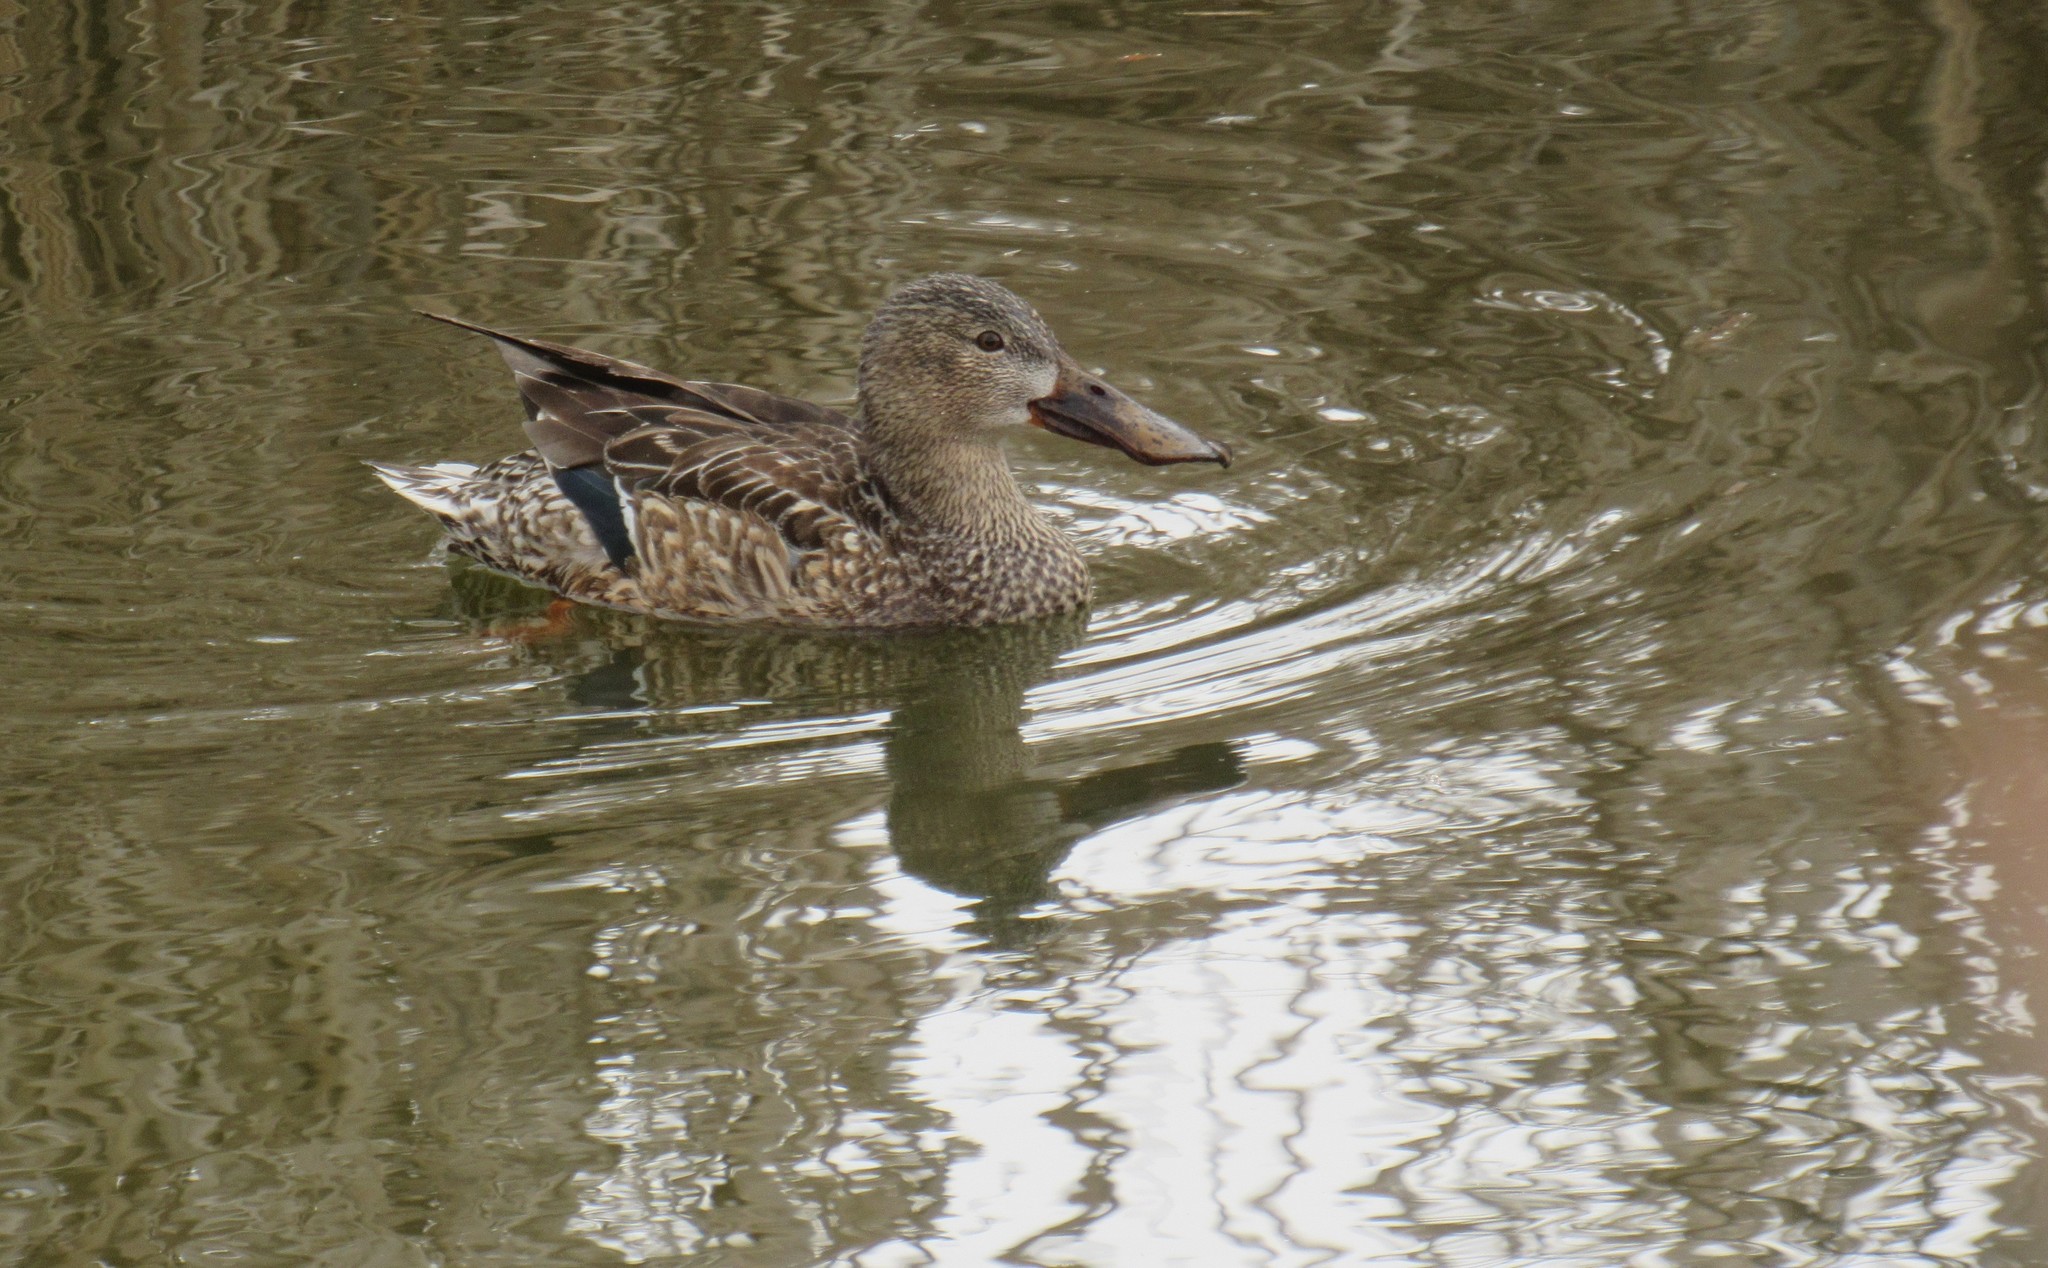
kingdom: Animalia
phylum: Chordata
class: Aves
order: Anseriformes
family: Anatidae
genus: Spatula
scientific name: Spatula clypeata
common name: Northern shoveler
